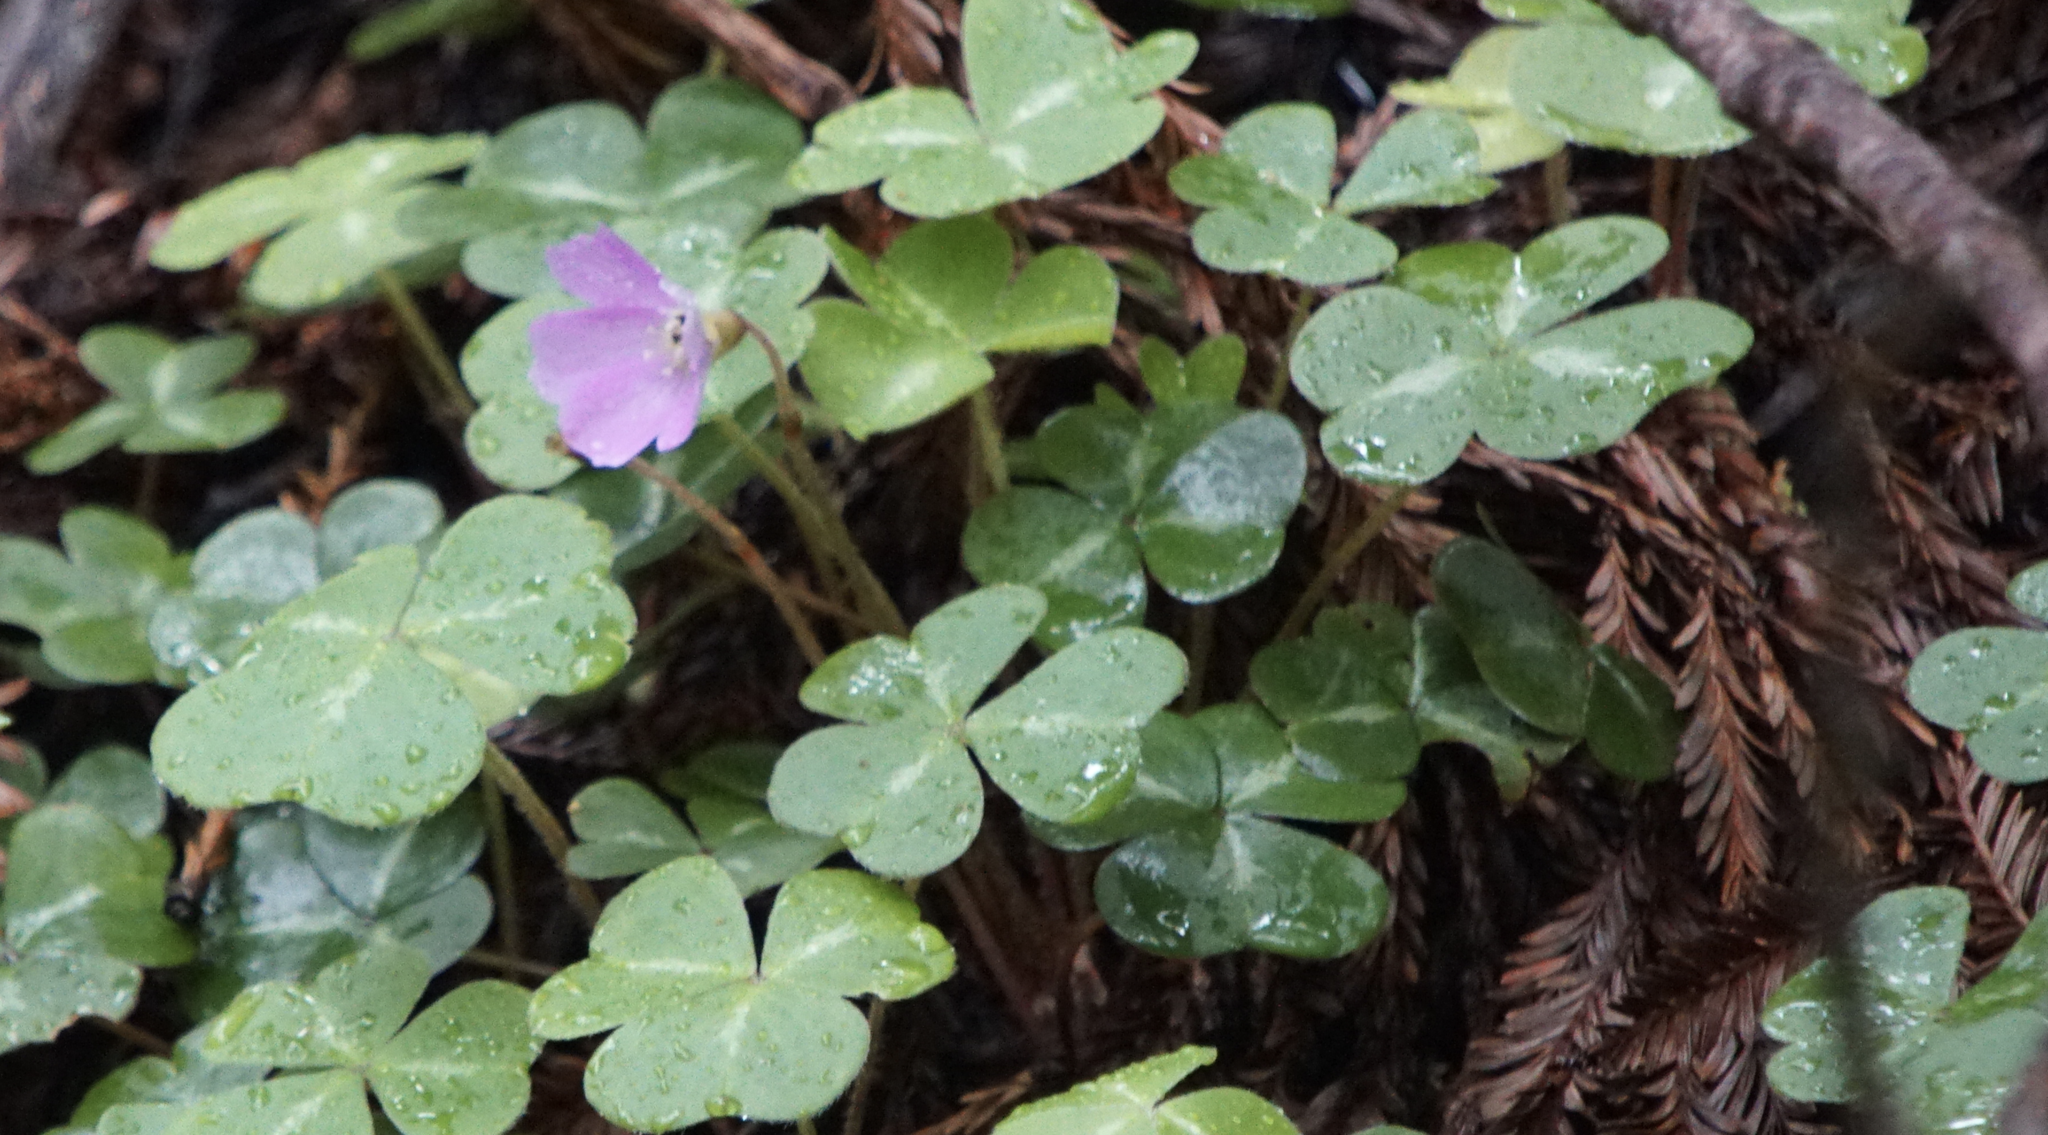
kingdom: Plantae
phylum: Tracheophyta
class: Magnoliopsida
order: Oxalidales
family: Oxalidaceae
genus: Oxalis
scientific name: Oxalis oregana
